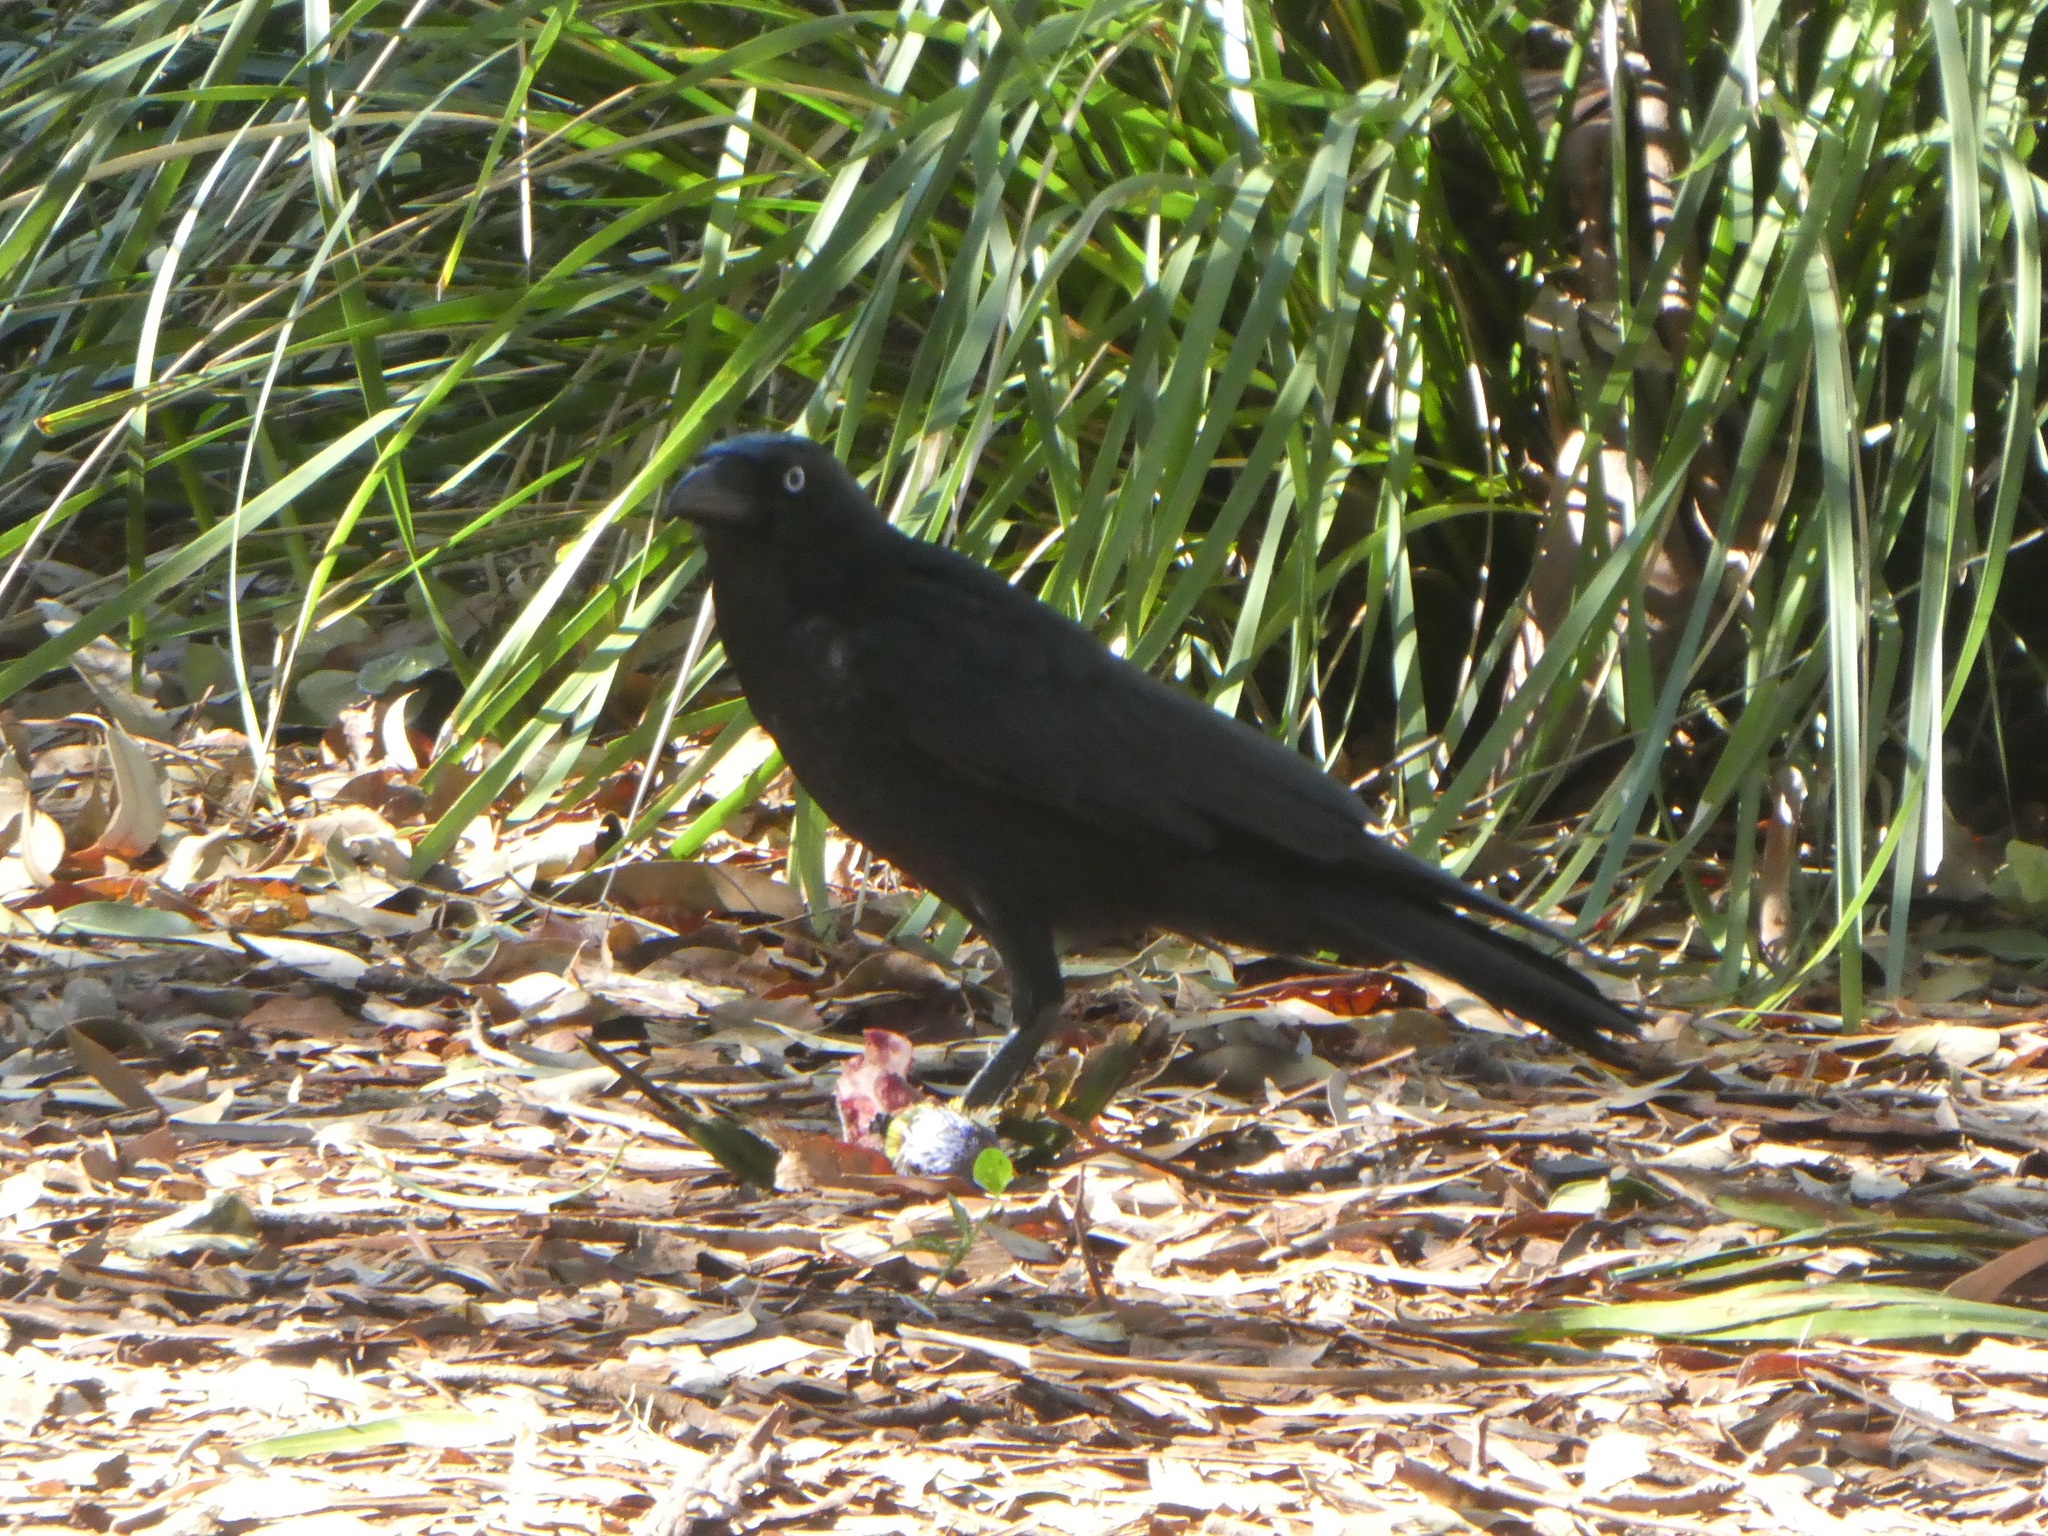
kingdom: Animalia
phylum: Chordata
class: Aves
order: Passeriformes
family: Corvidae
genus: Corvus
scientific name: Corvus orru
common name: Torresian crow
